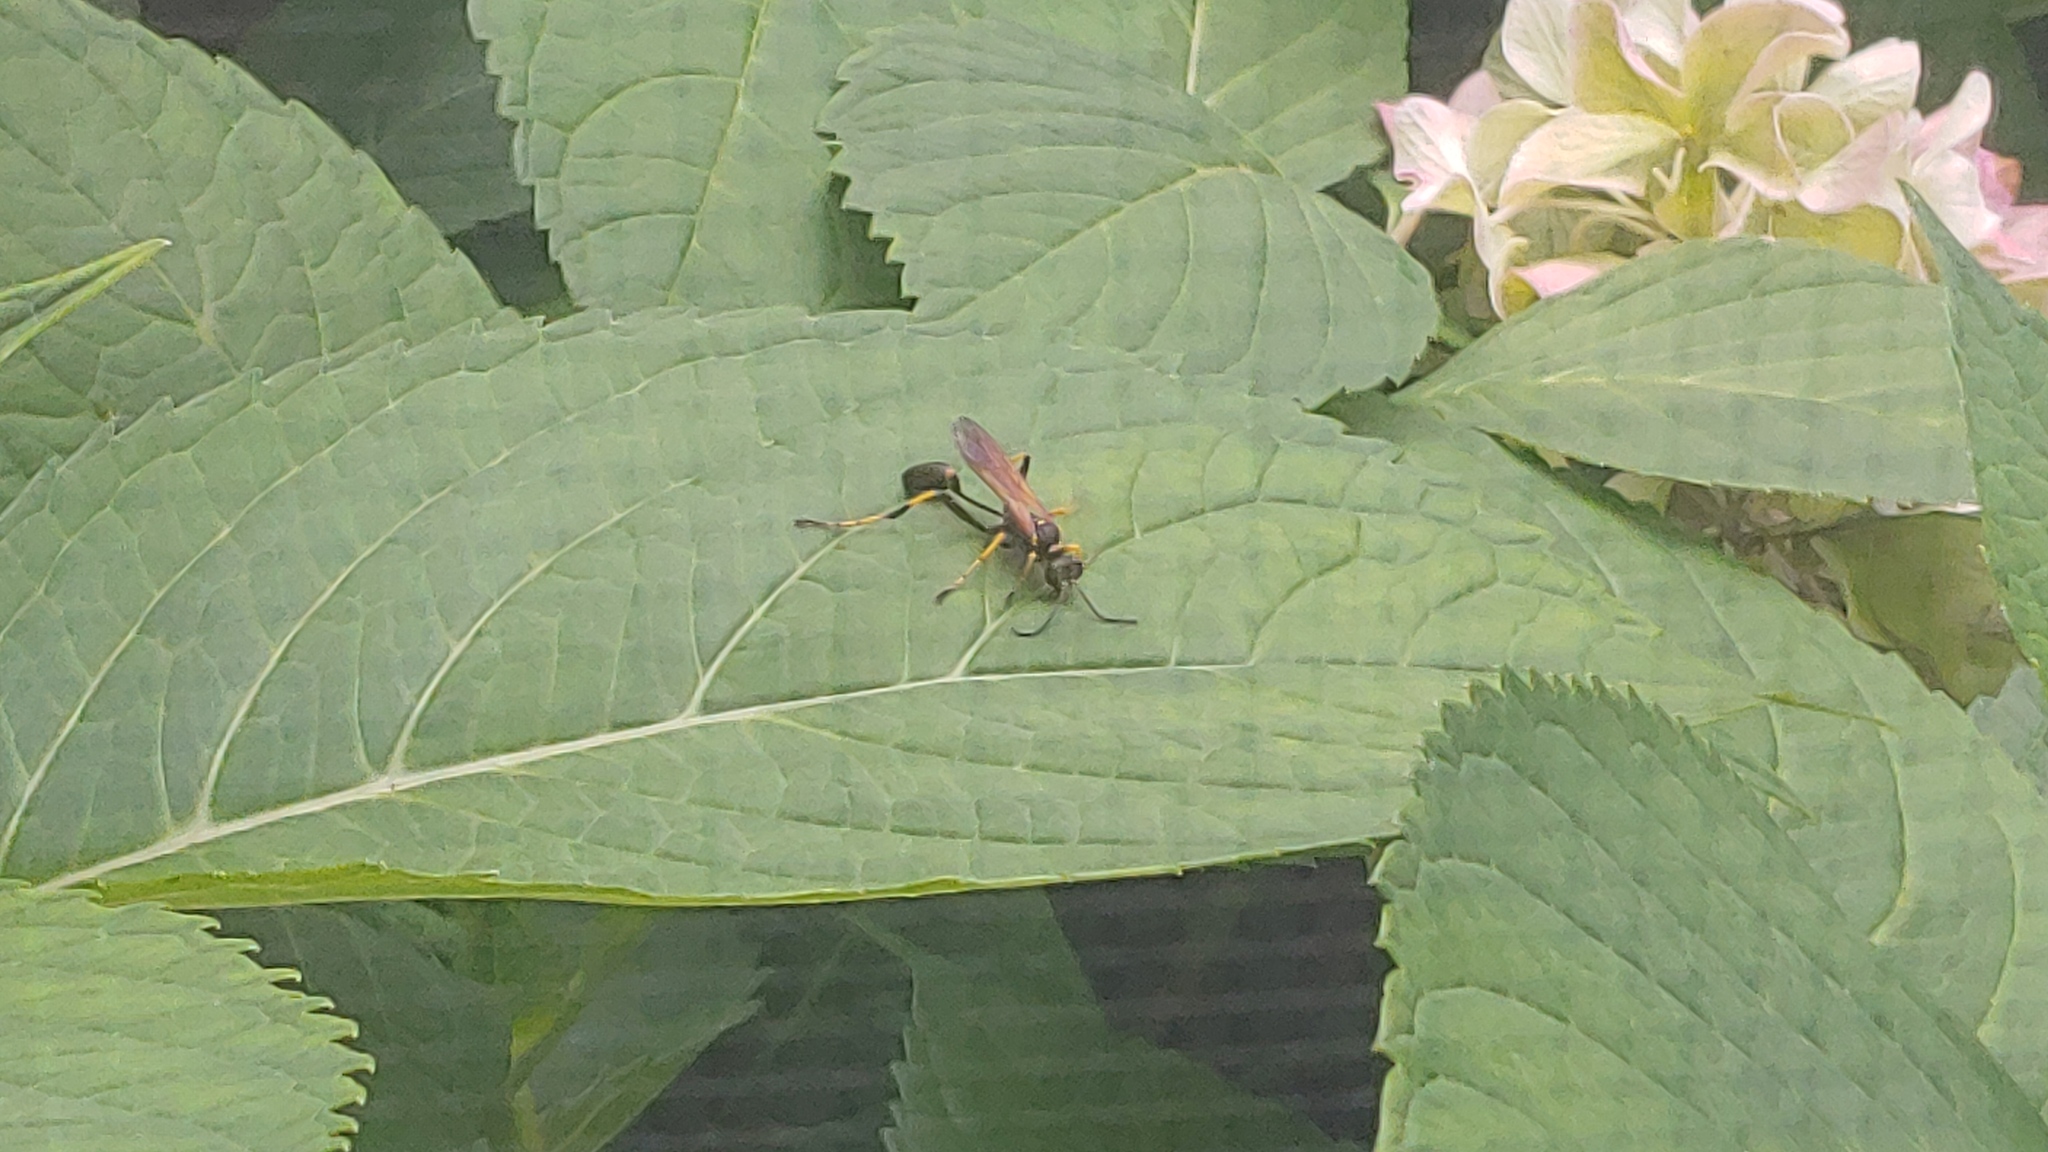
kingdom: Animalia
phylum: Arthropoda
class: Insecta
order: Hymenoptera
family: Sphecidae
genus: Sceliphron
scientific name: Sceliphron caementarium
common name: Mud dauber
